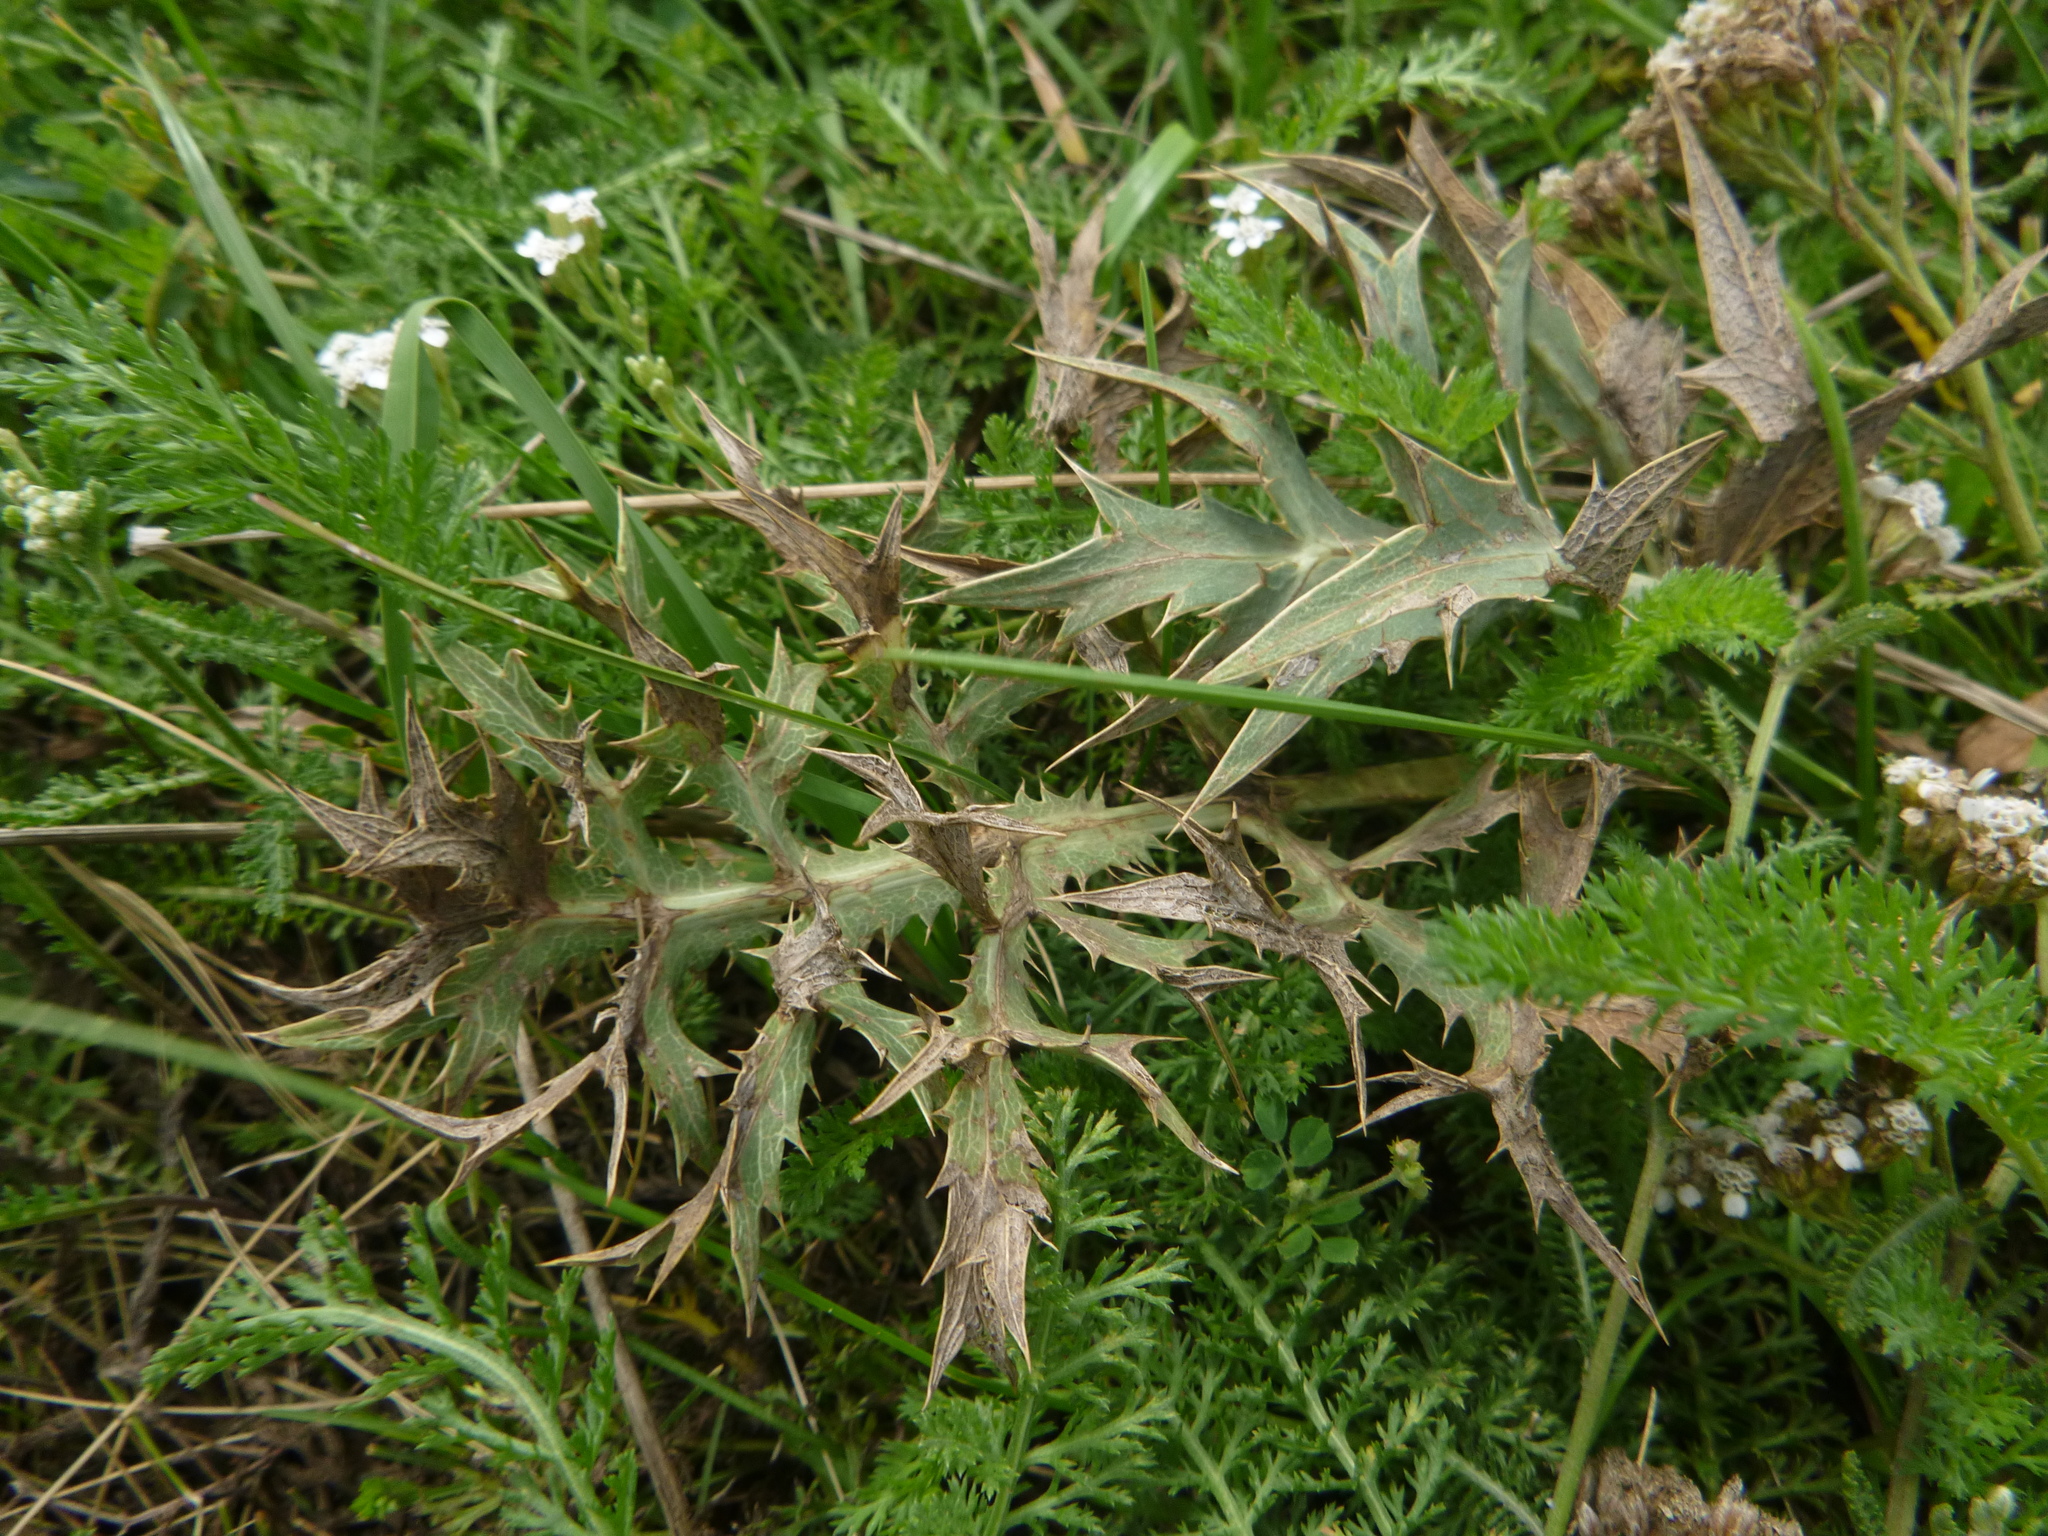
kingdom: Plantae
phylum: Tracheophyta
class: Magnoliopsida
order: Apiales
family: Apiaceae
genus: Eryngium
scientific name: Eryngium campestre
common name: Field eryngo
